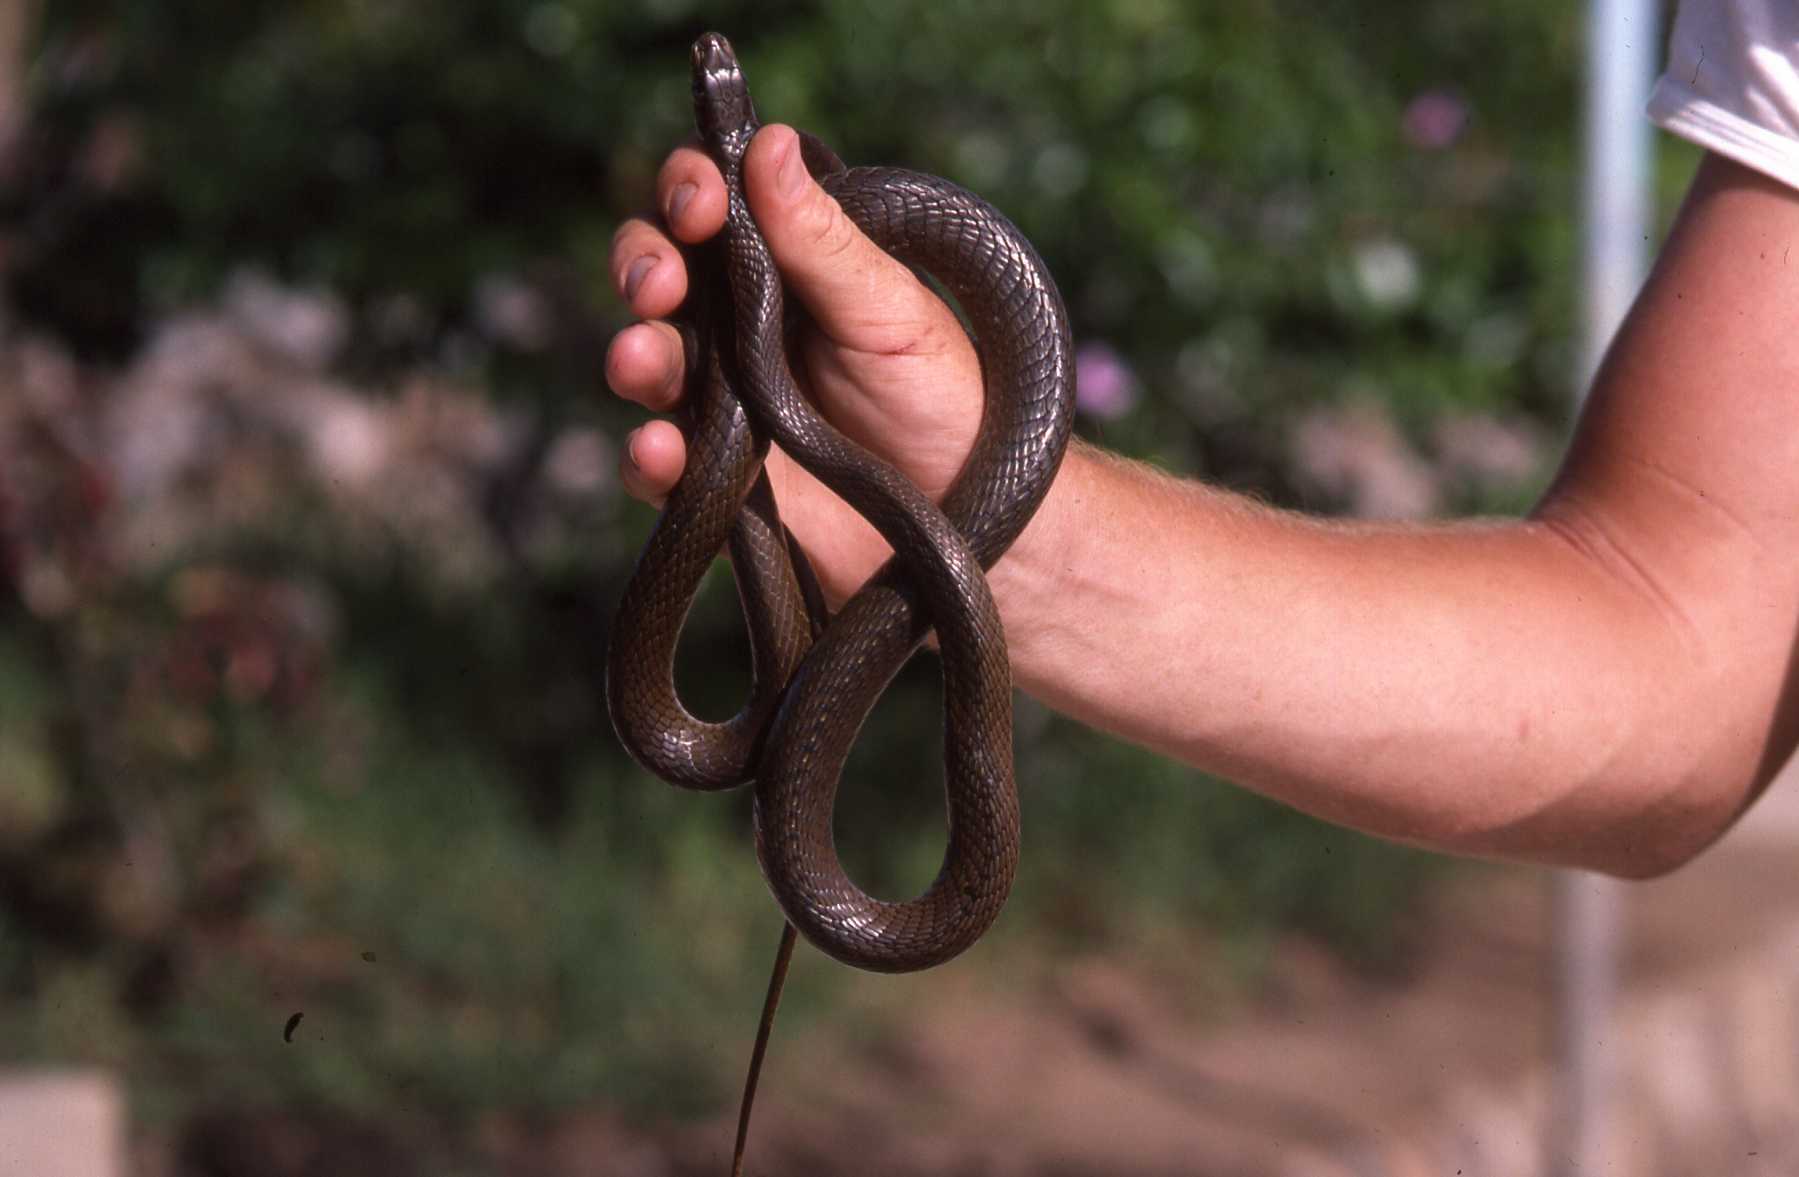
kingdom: Animalia
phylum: Chordata
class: Squamata
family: Psammophiidae
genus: Psammophis
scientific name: Psammophis mossambicus
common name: Olive grass snake
